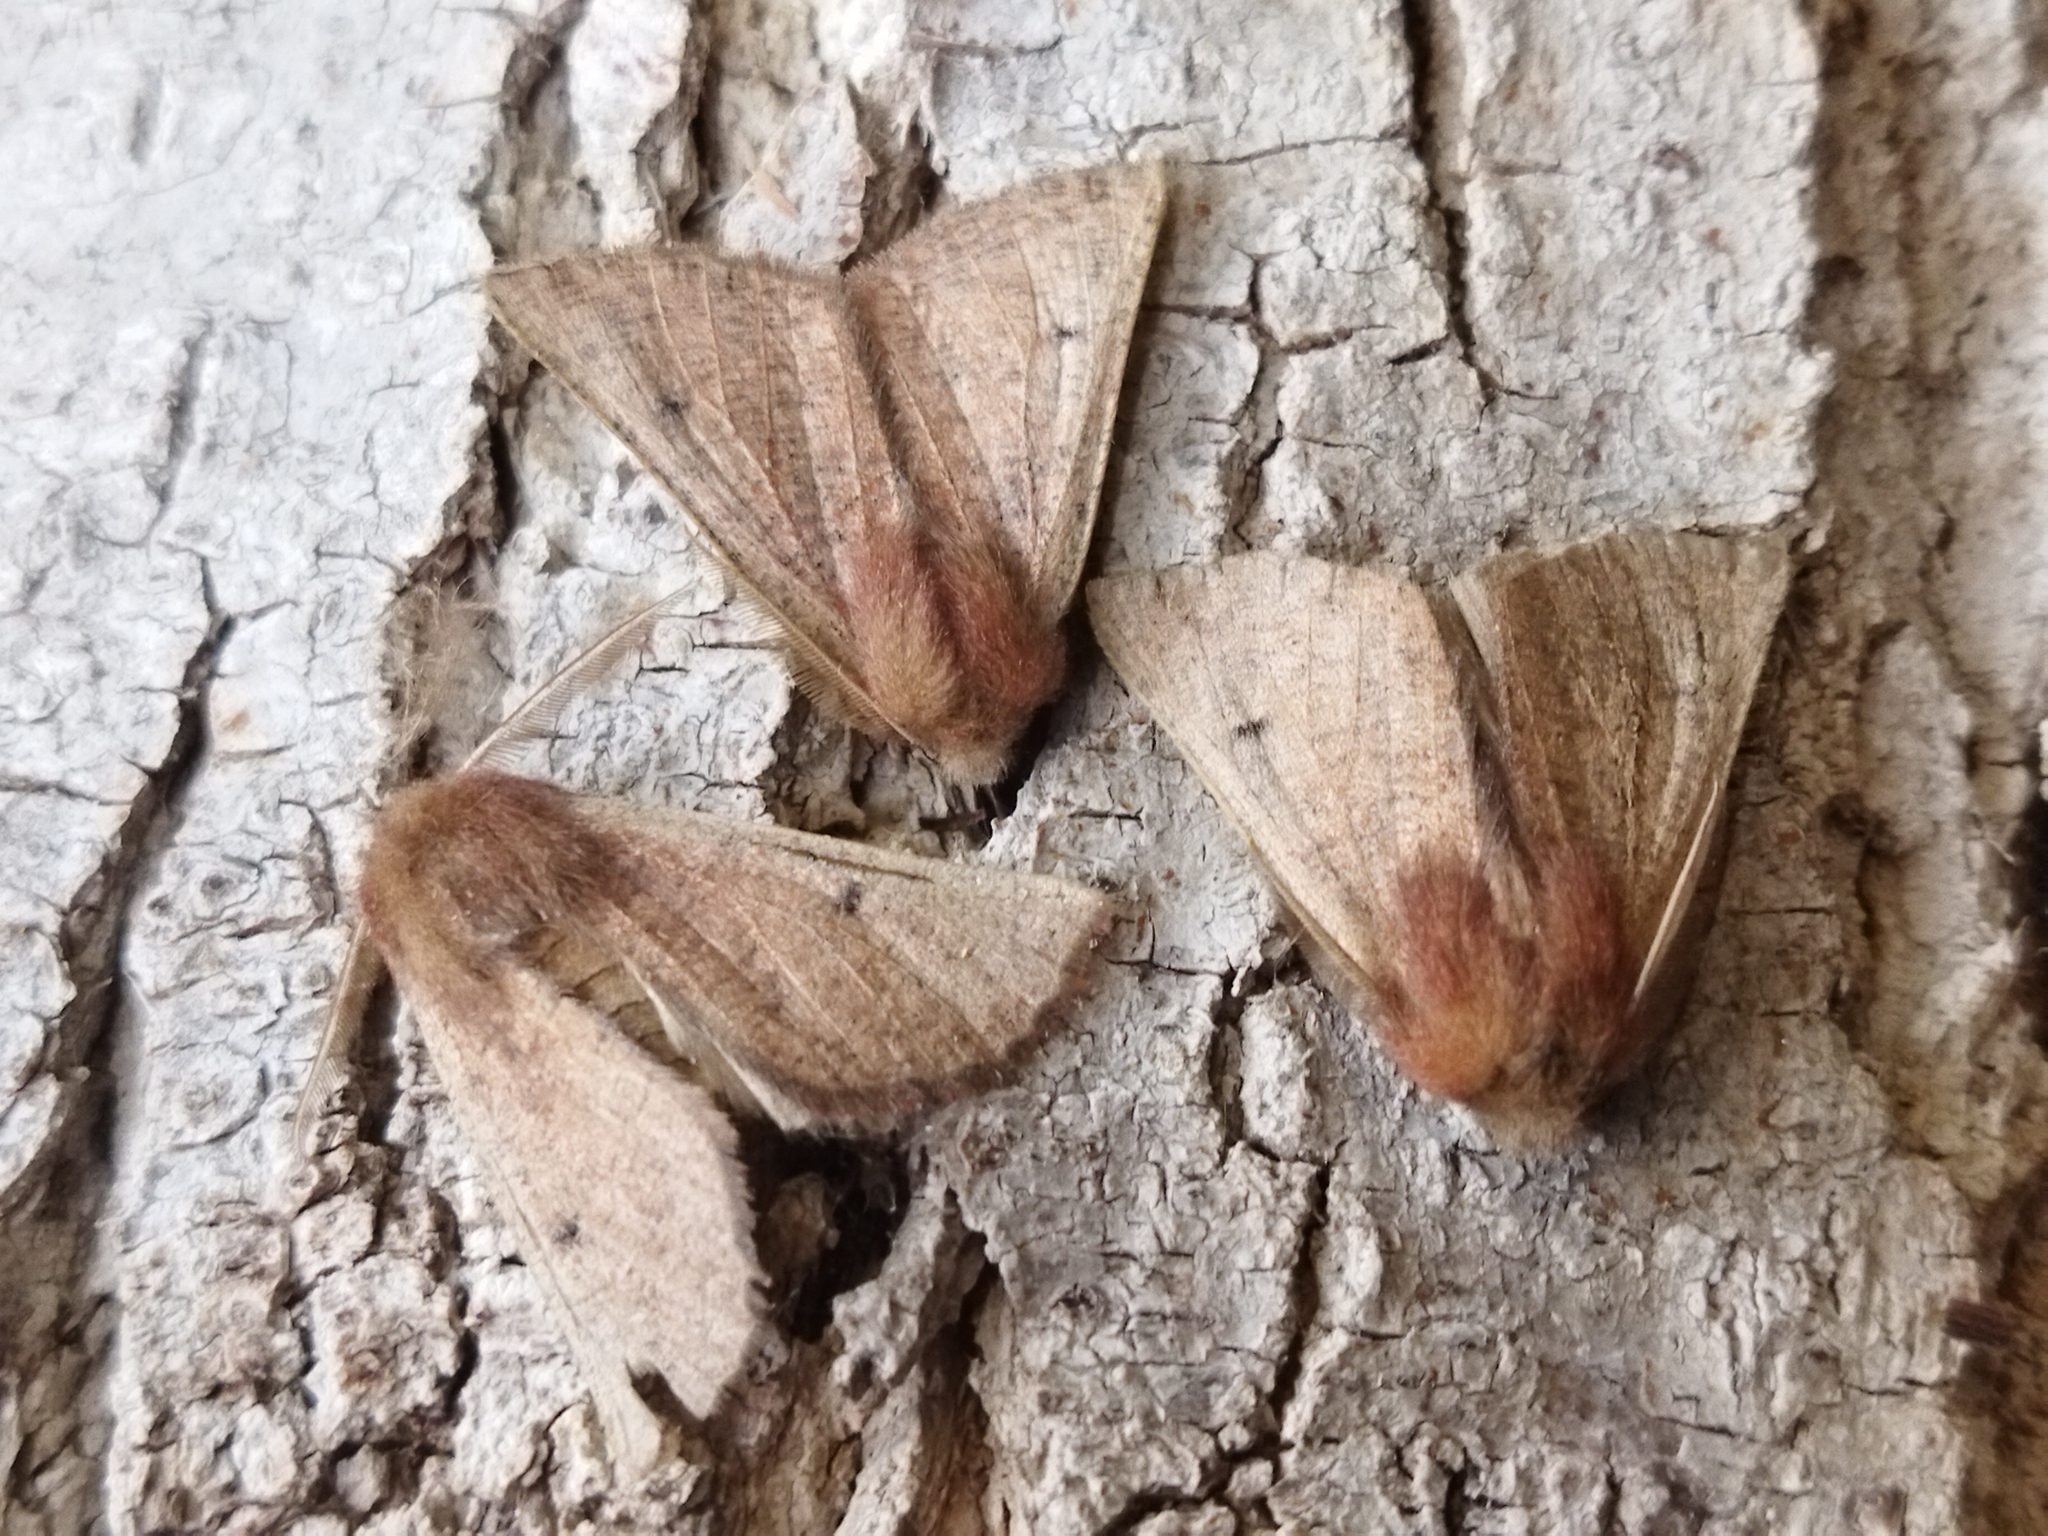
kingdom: Animalia
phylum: Arthropoda
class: Insecta
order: Lepidoptera
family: Geometridae
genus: Dasycorsa
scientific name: Dasycorsa modesta
